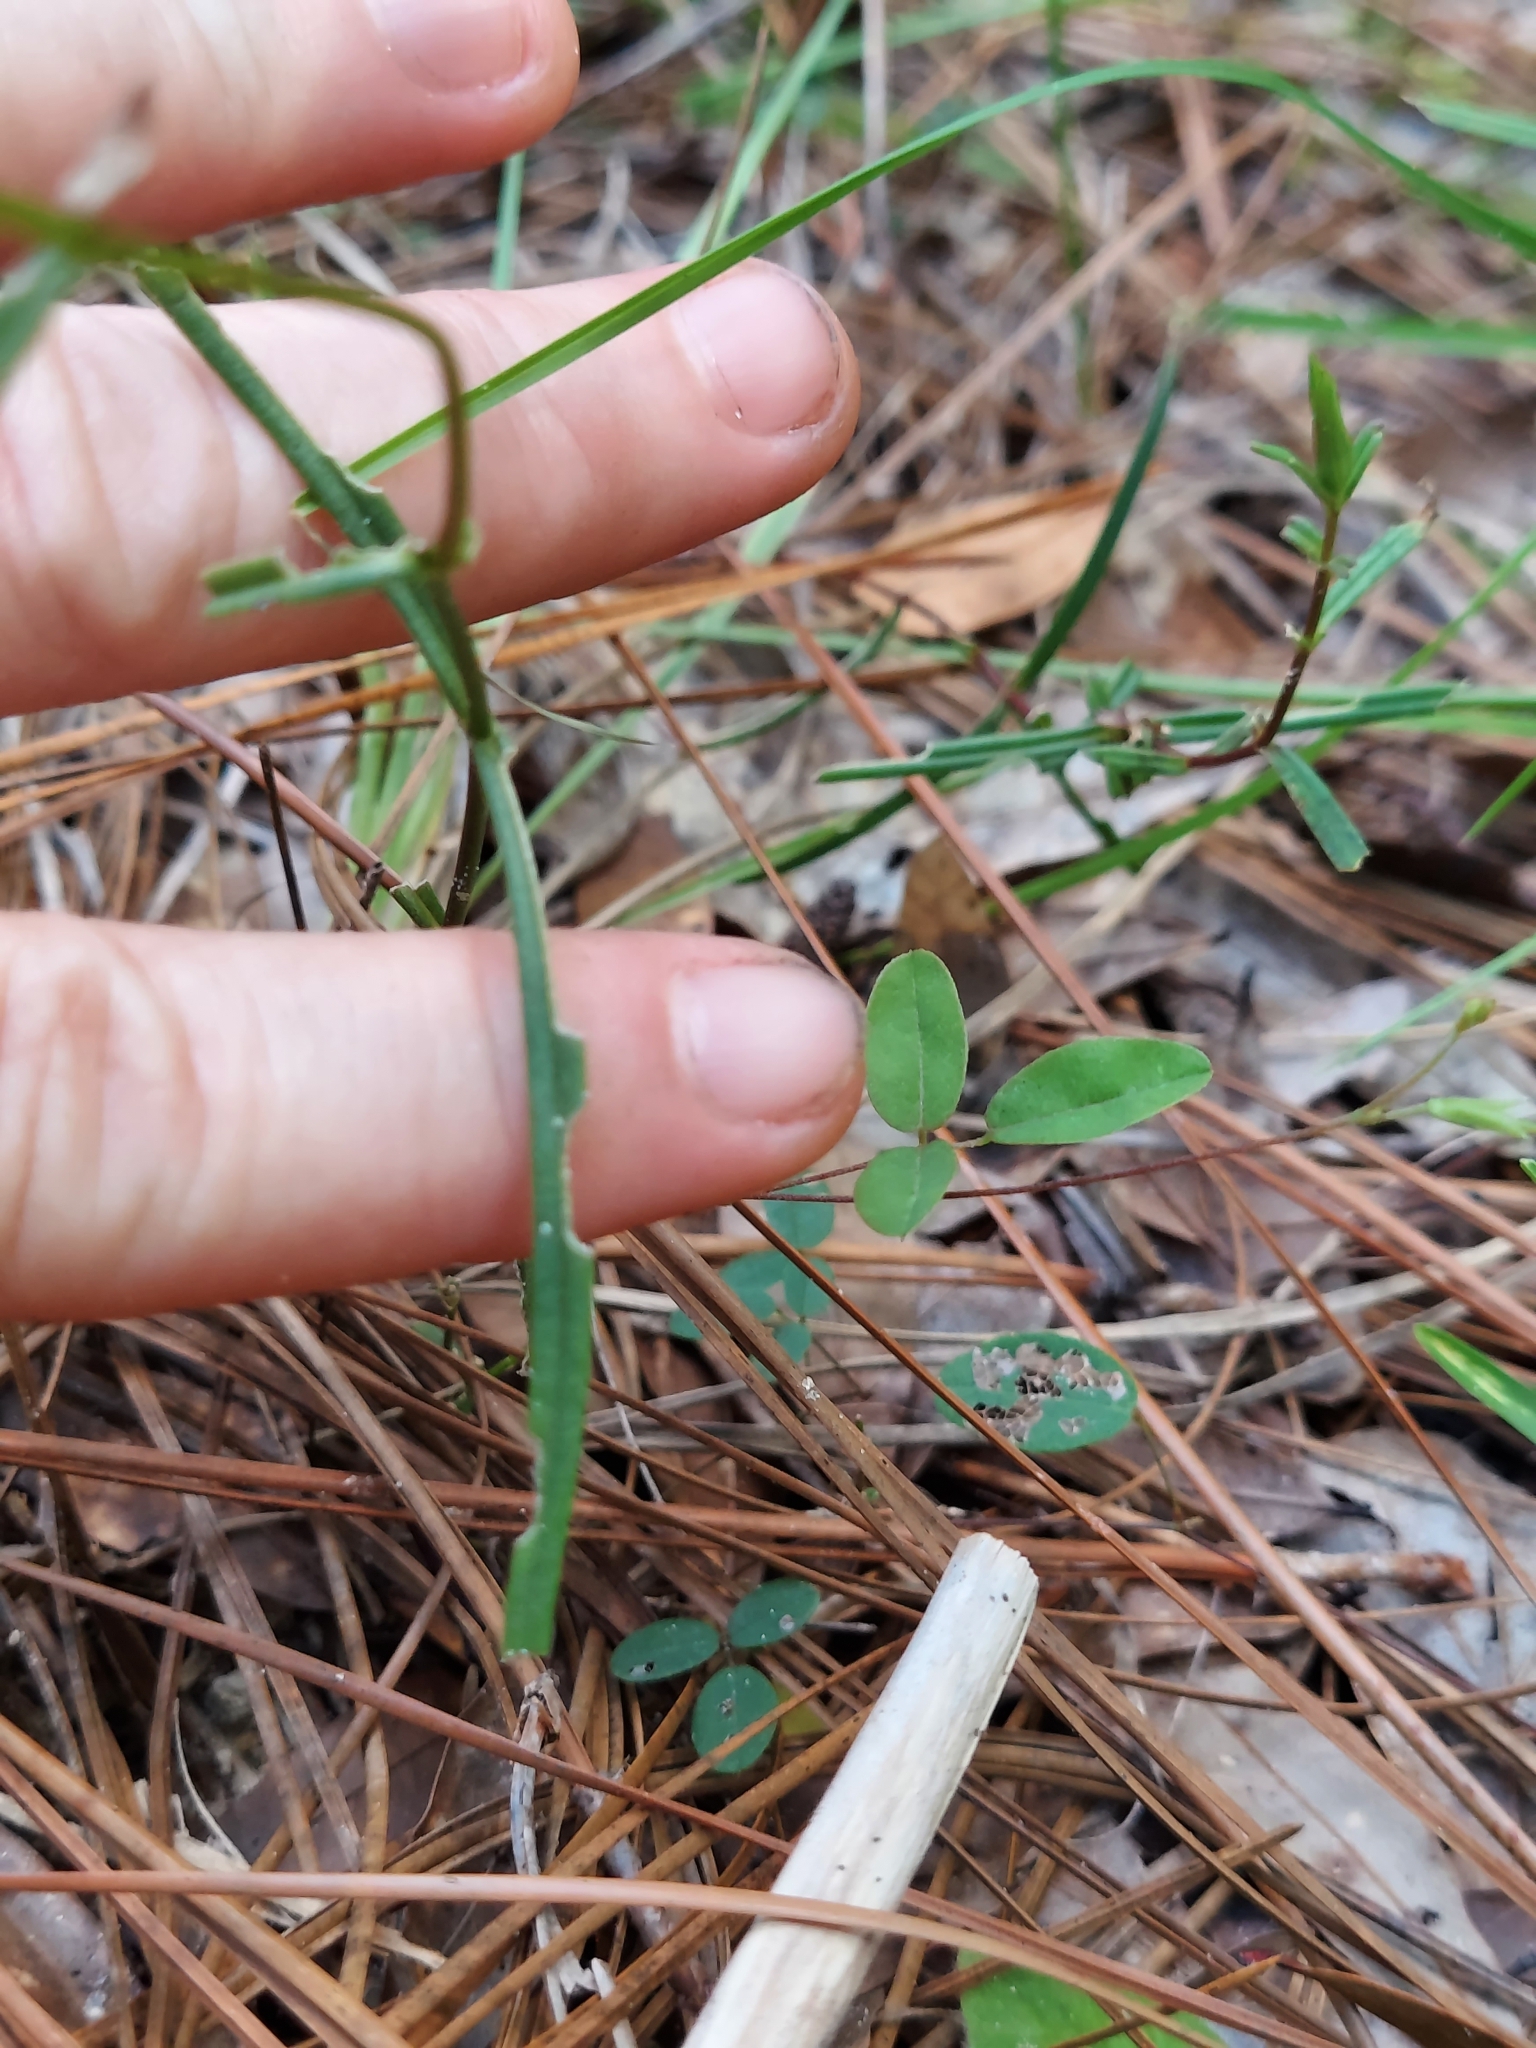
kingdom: Plantae
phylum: Tracheophyta
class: Magnoliopsida
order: Ericales
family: Polemoniaceae
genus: Phlox
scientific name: Phlox pilosa
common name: Prairie phlox
